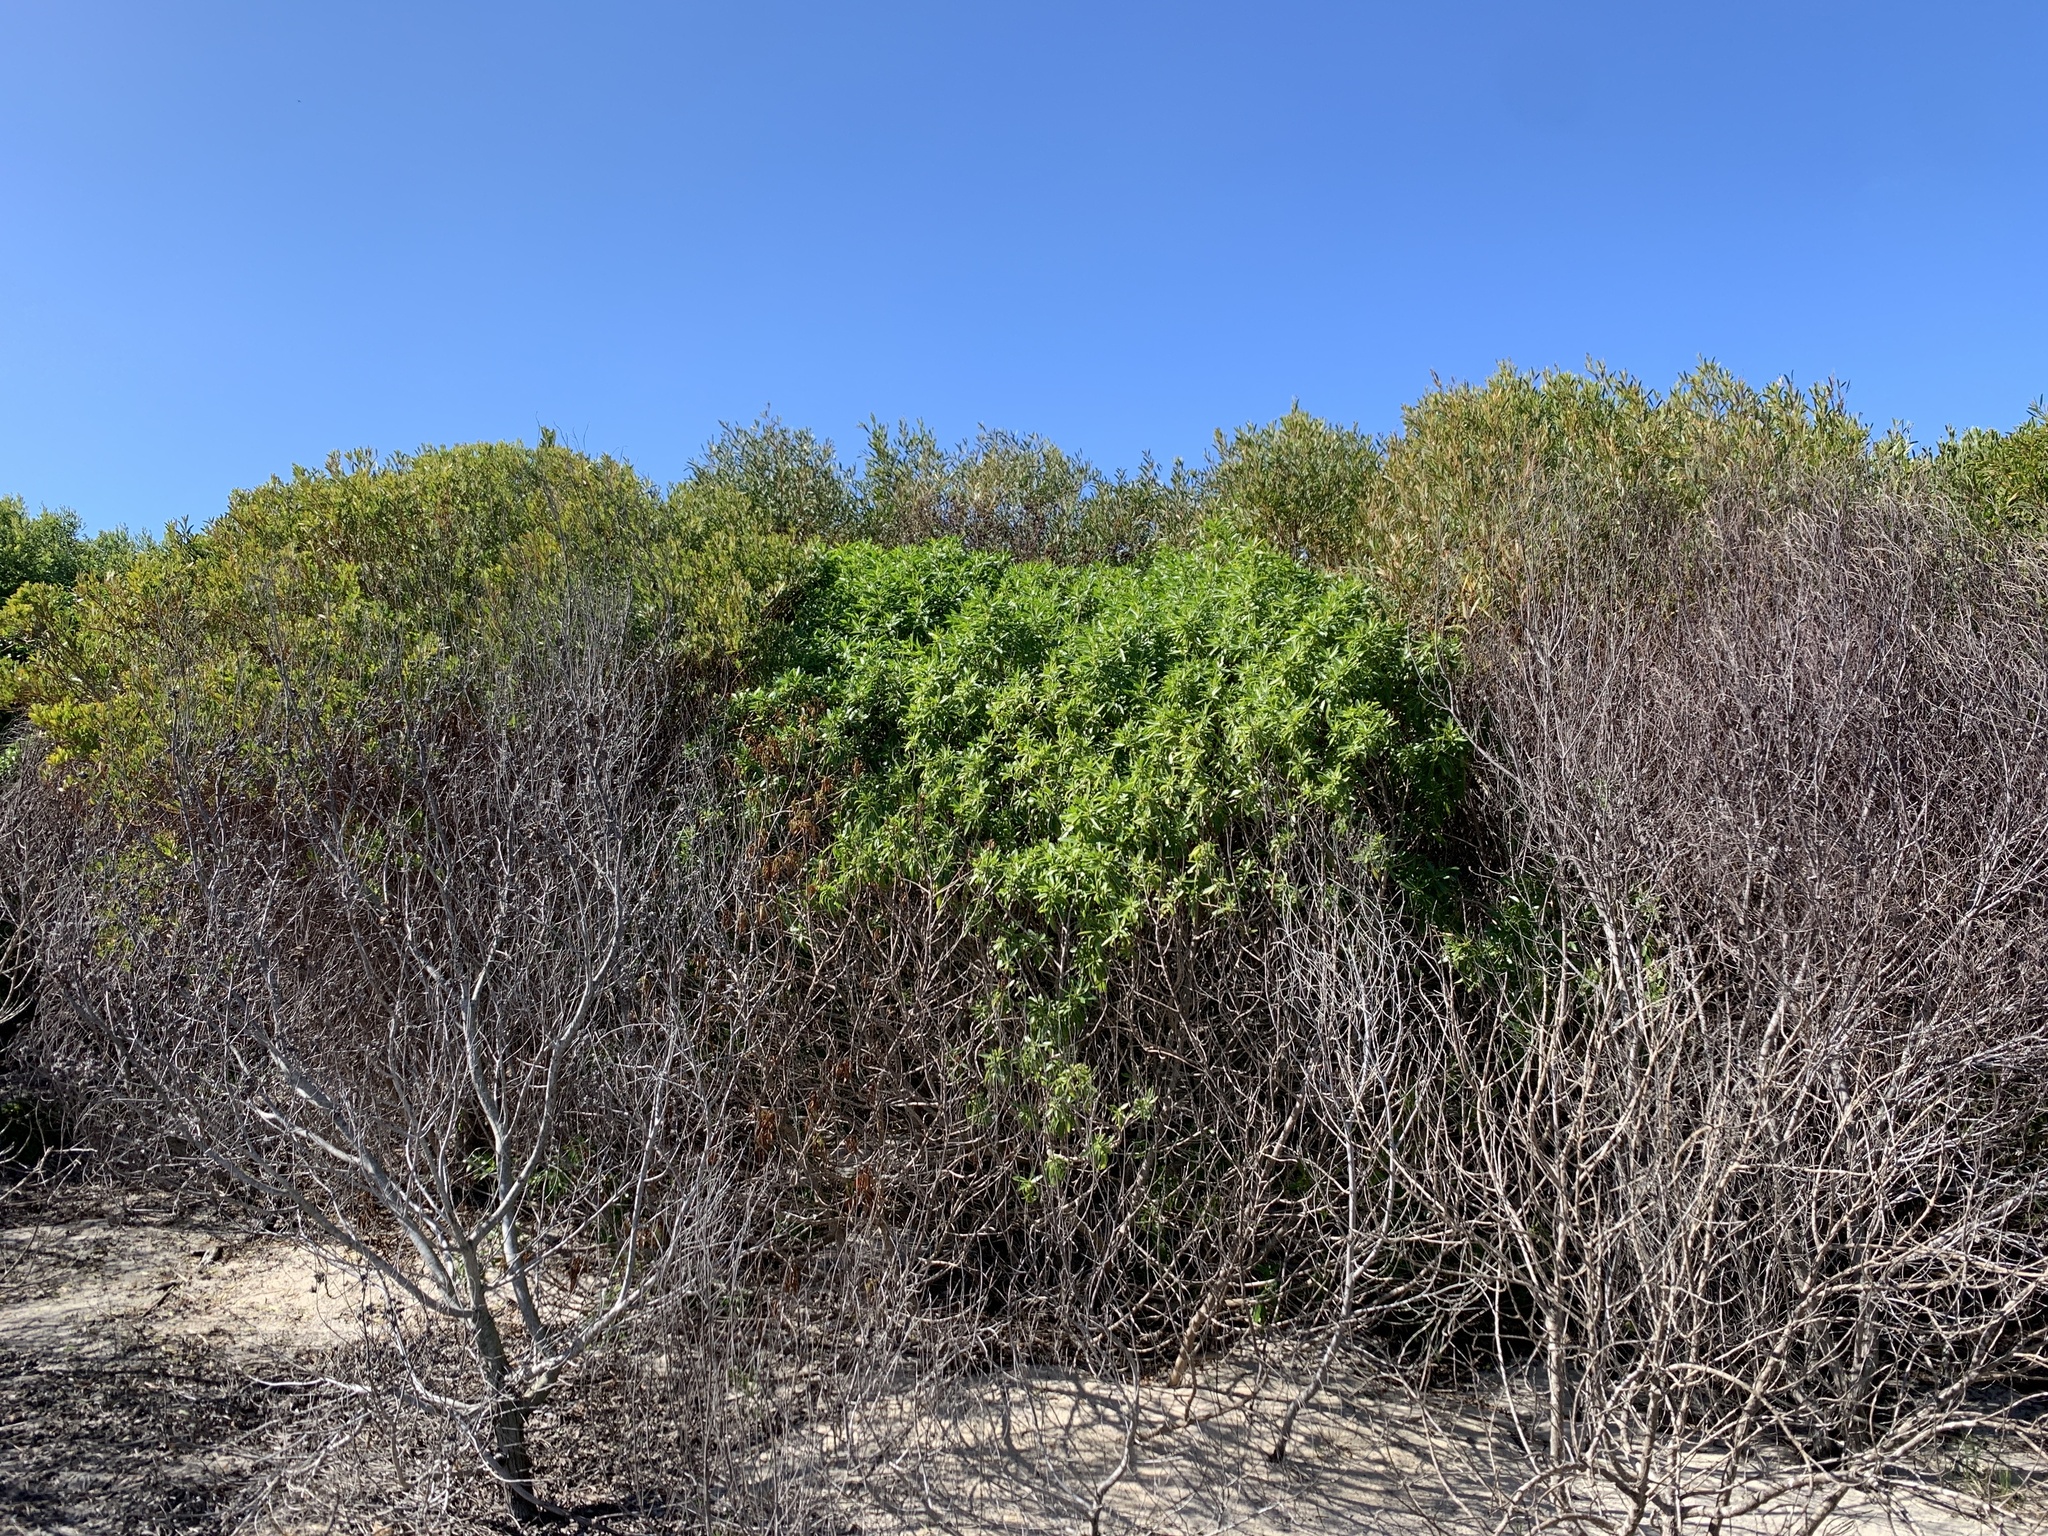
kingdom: Plantae
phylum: Tracheophyta
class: Magnoliopsida
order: Lamiales
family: Scrophulariaceae
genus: Myoporum
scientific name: Myoporum insulare
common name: Common boobialla
